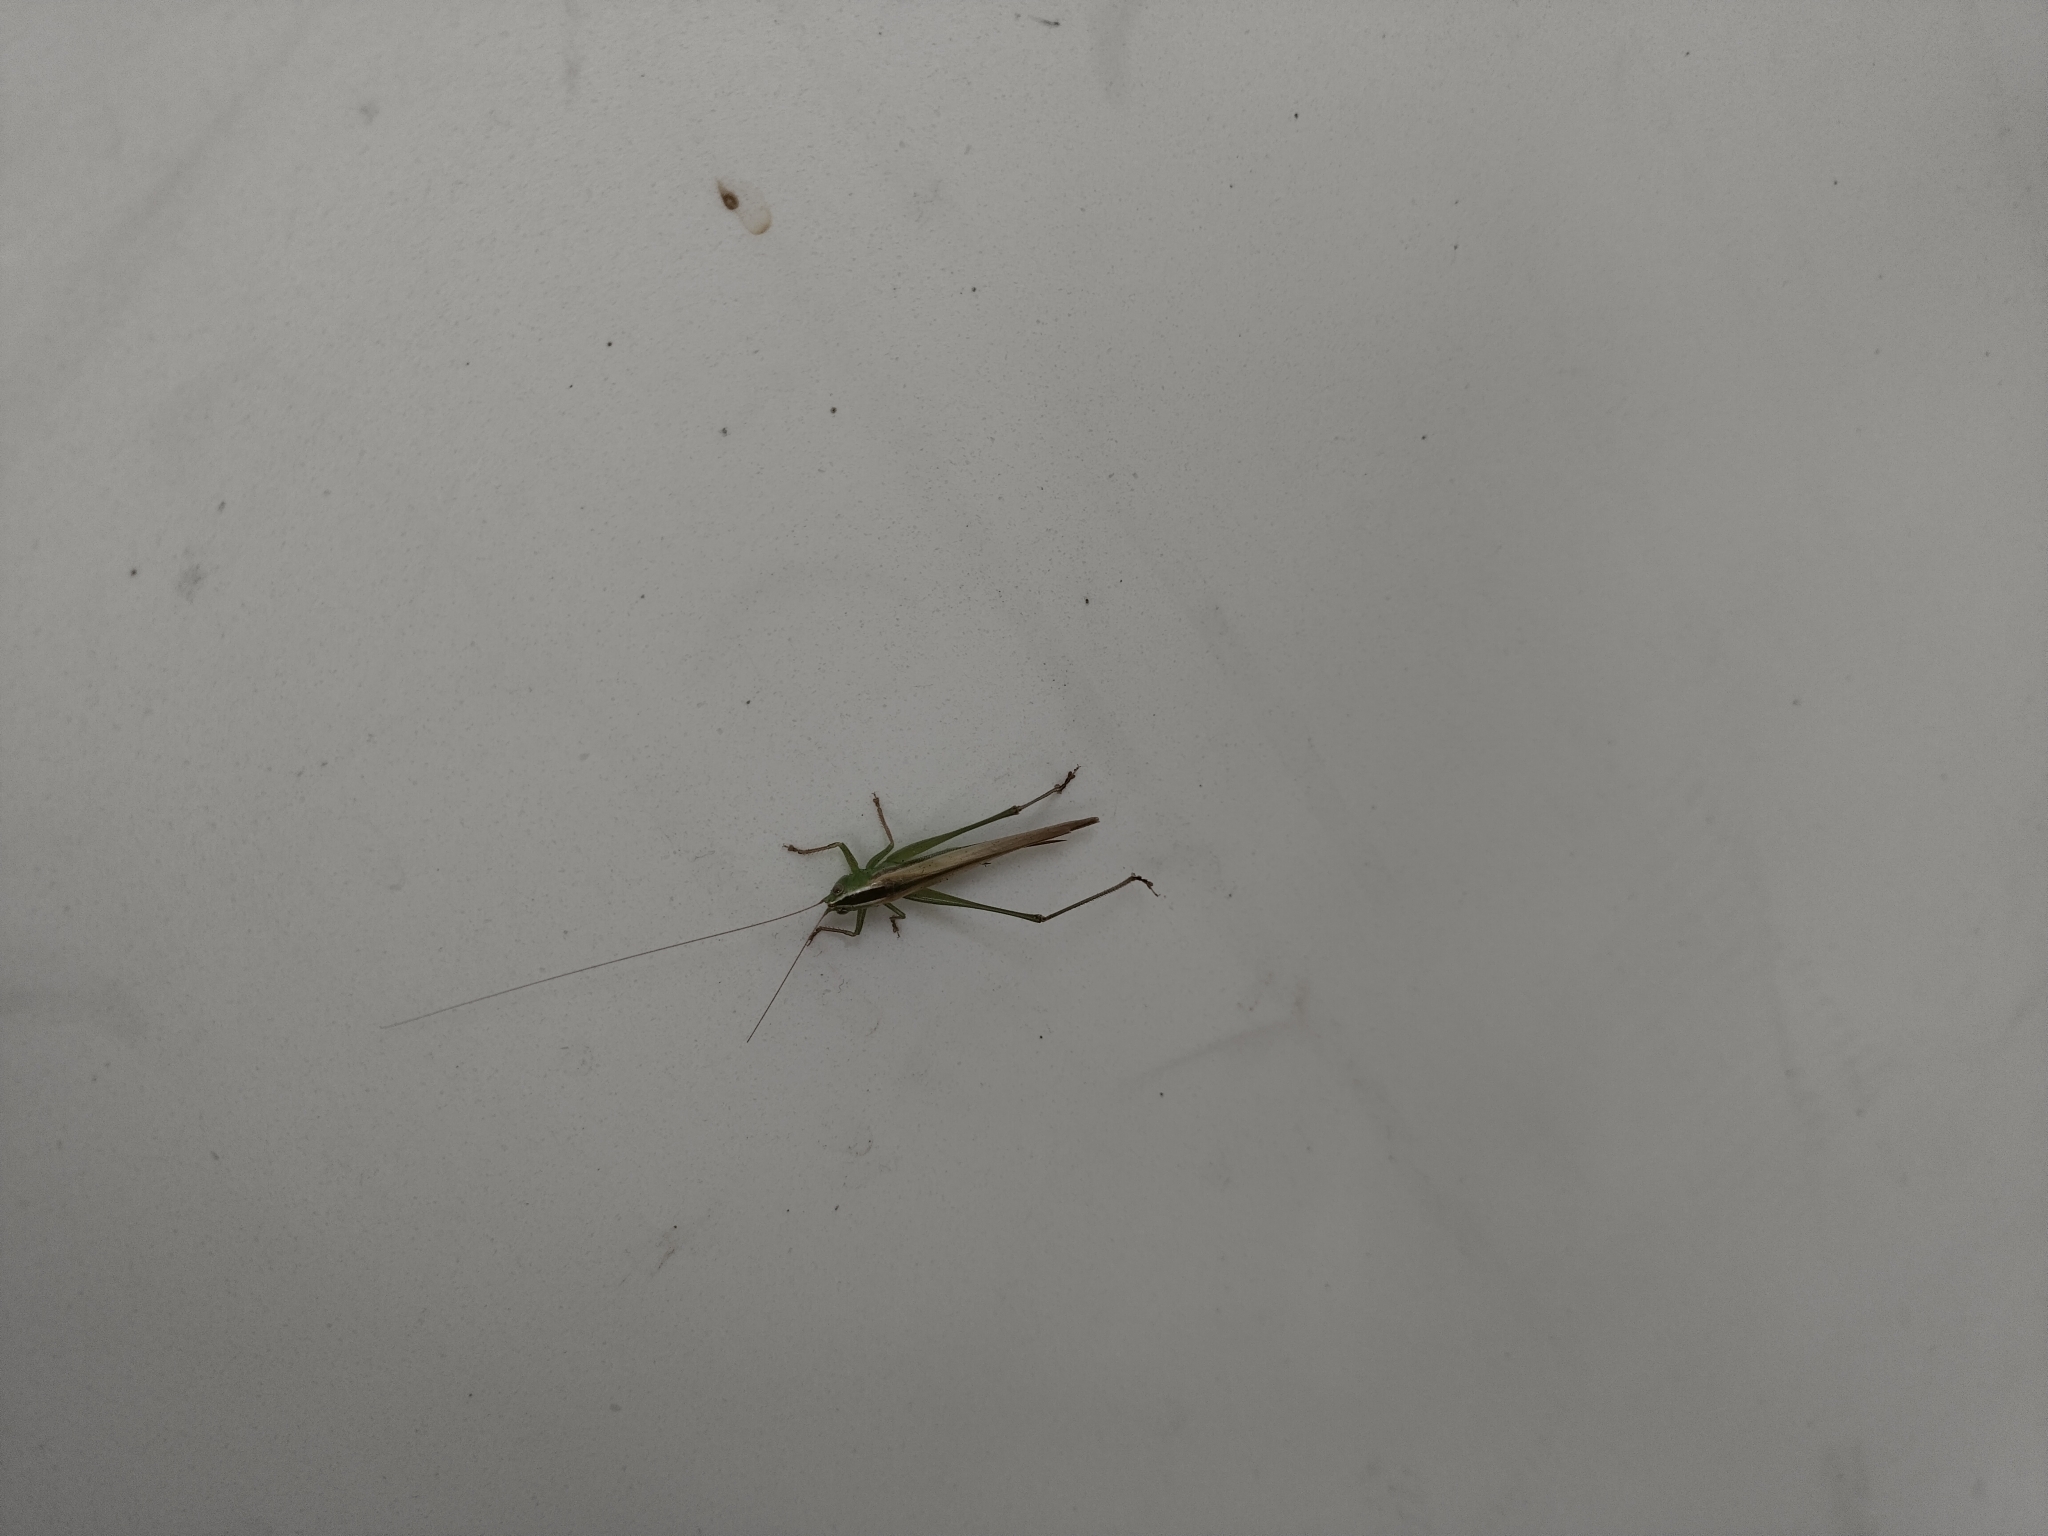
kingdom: Animalia
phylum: Arthropoda
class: Insecta
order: Orthoptera
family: Tettigoniidae
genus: Conocephalus
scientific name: Conocephalus upoluensis
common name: Upolu meadow katydid
